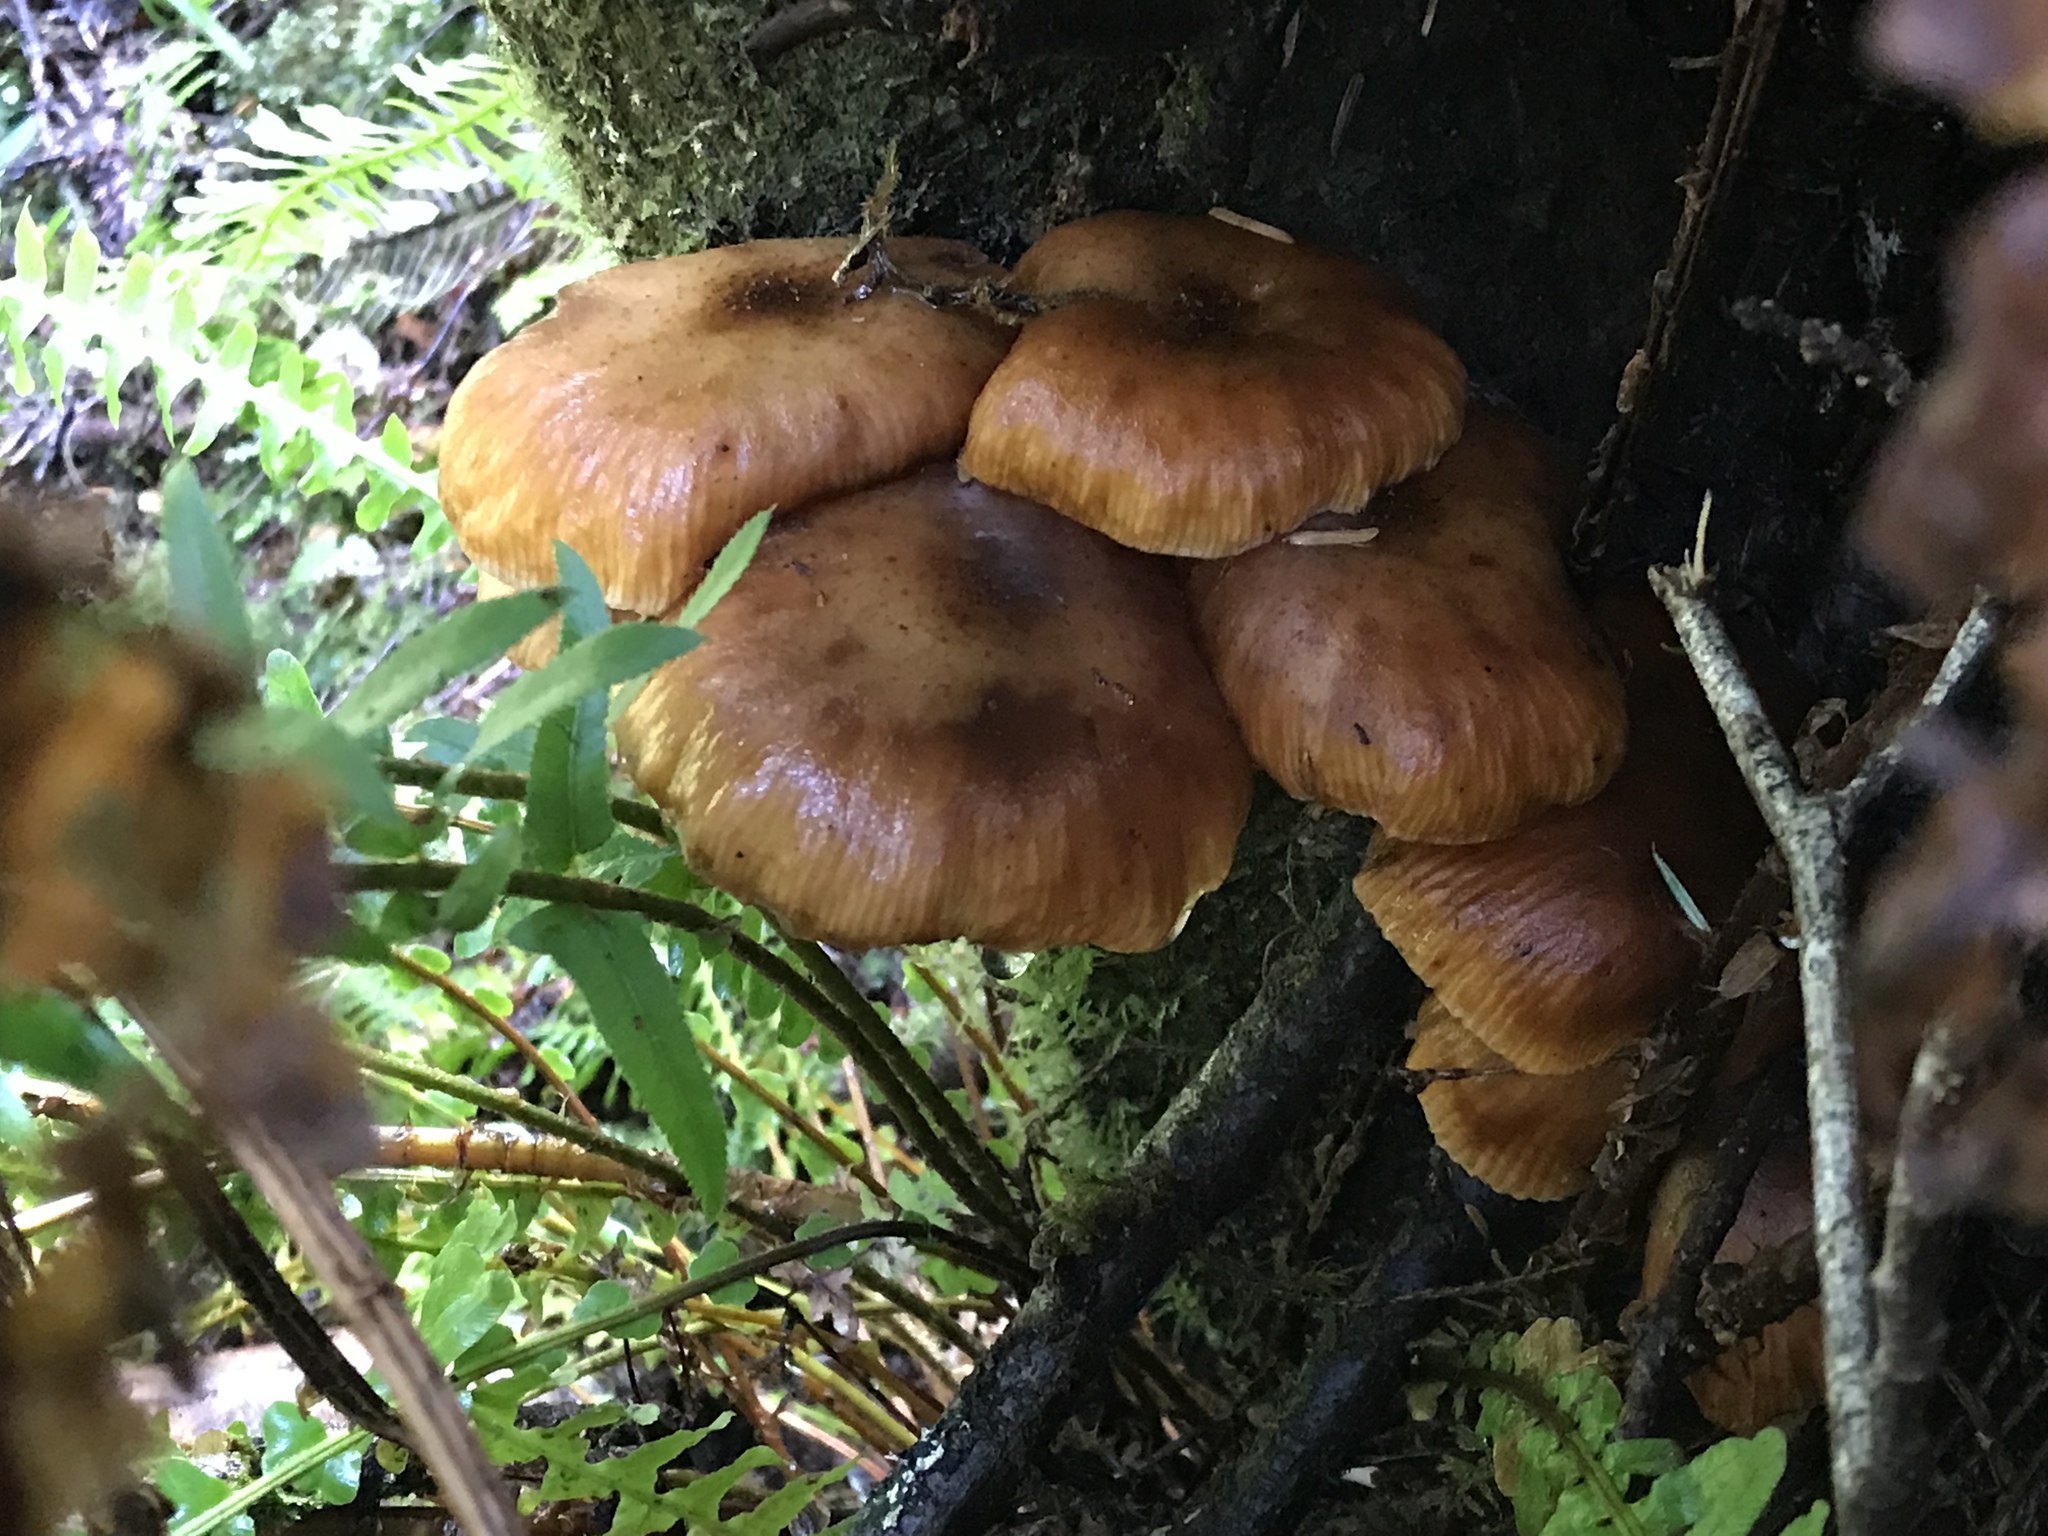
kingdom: Fungi
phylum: Basidiomycota
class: Agaricomycetes
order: Agaricales
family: Physalacriaceae
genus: Armillaria
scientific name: Armillaria mellea
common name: Honey fungus
